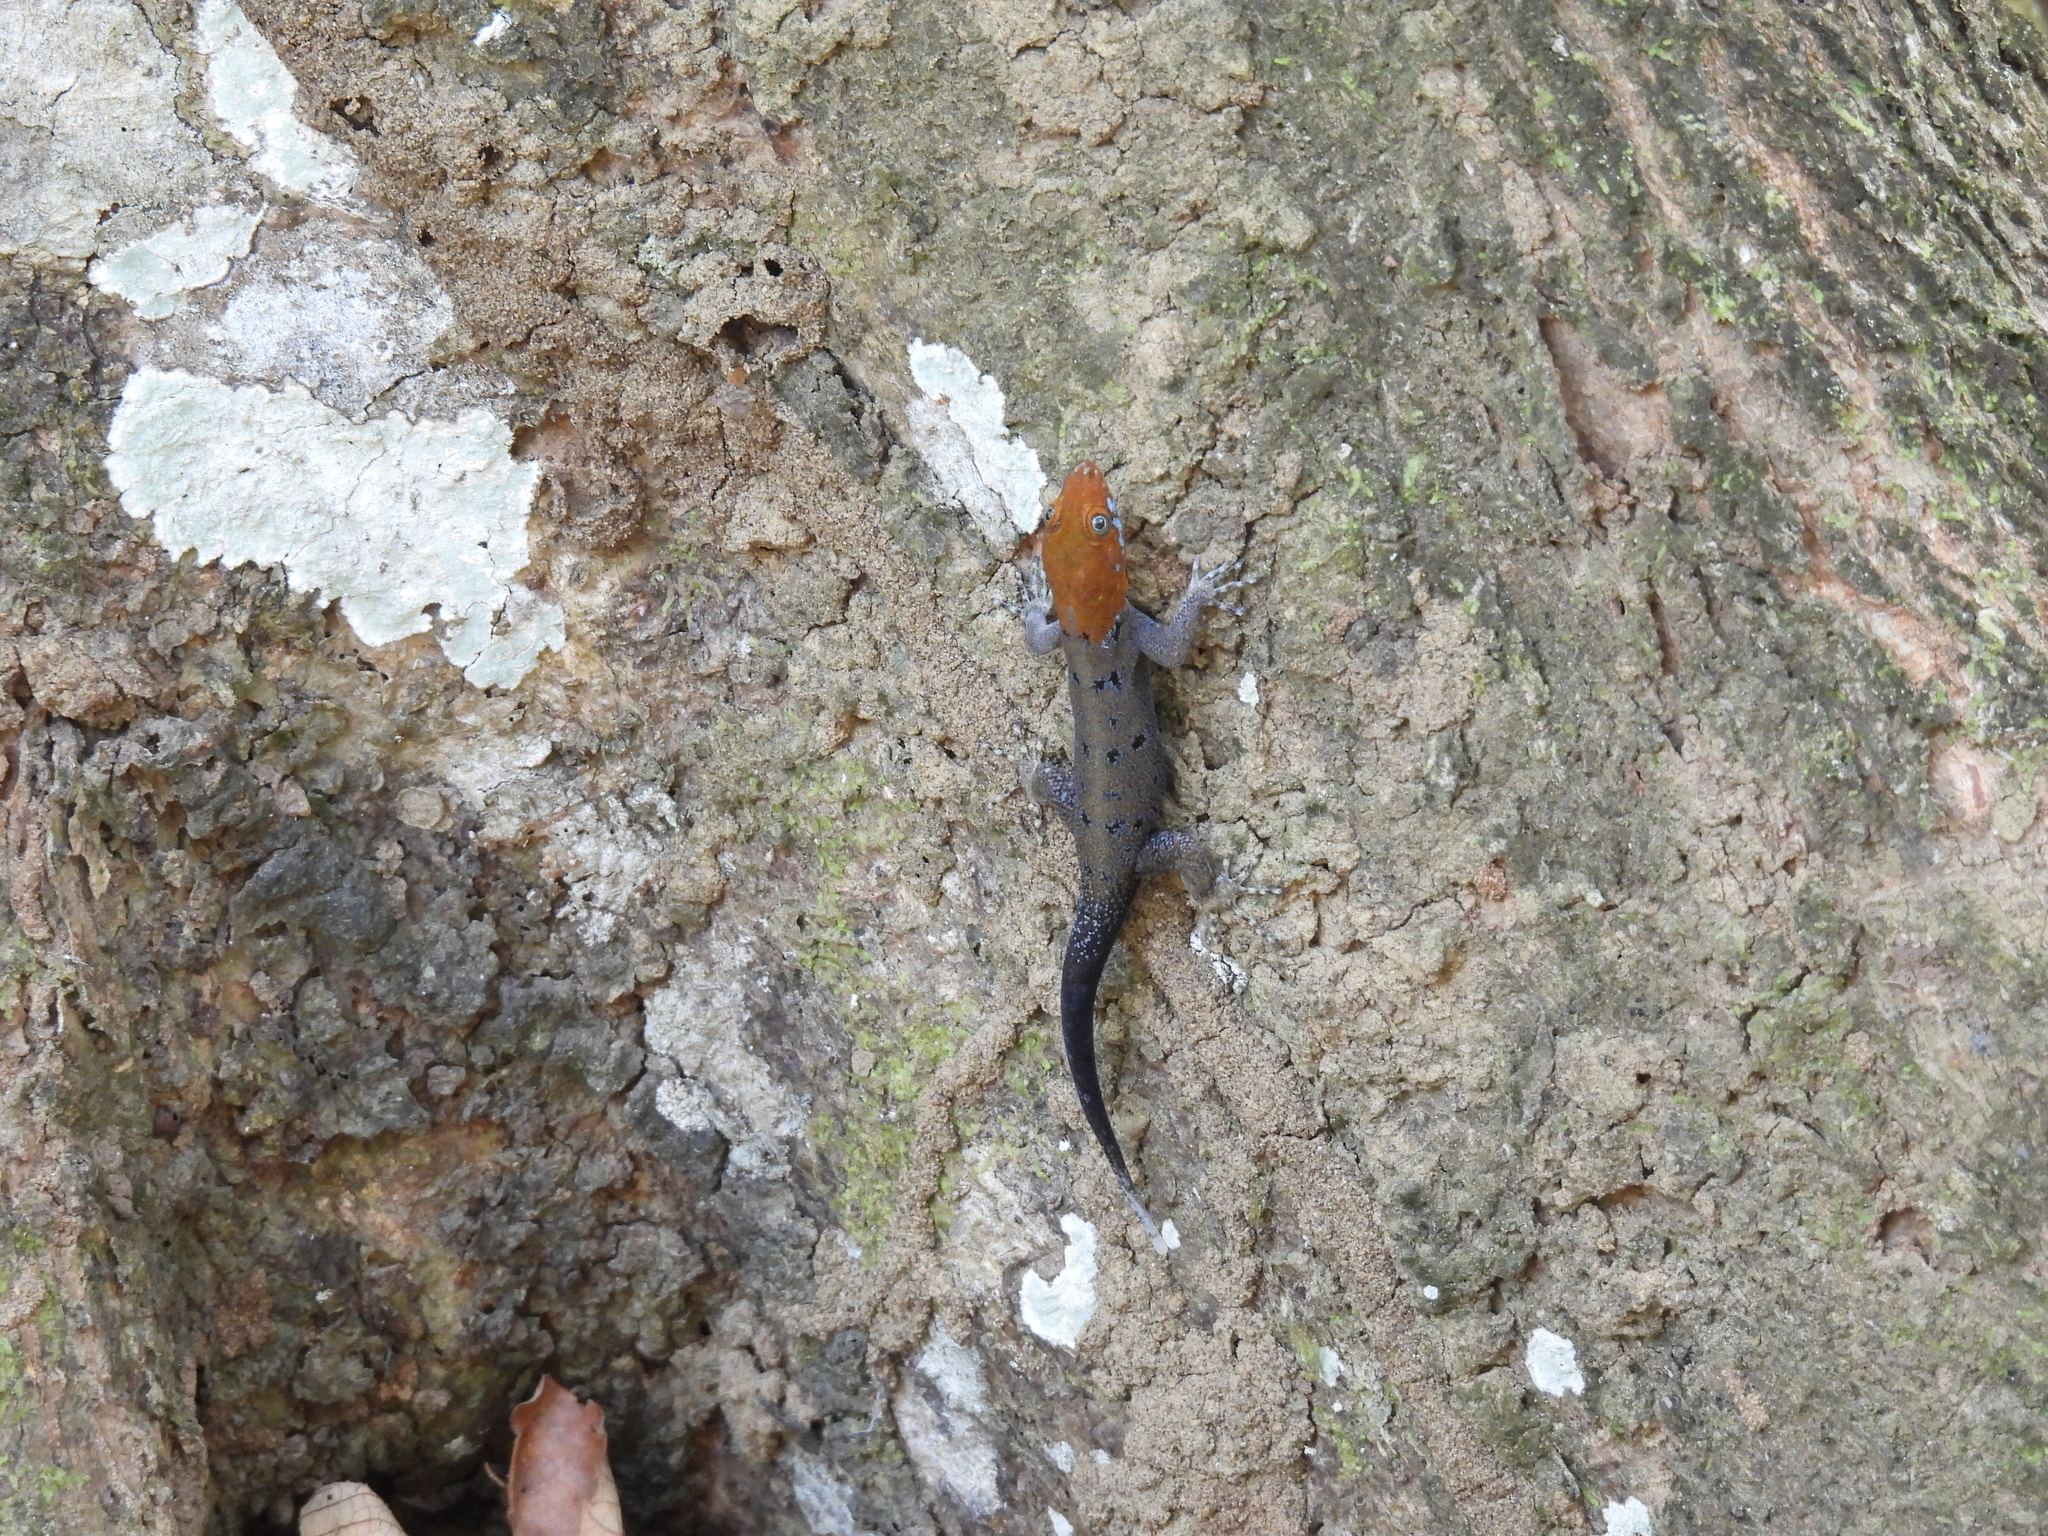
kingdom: Animalia
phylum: Chordata
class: Squamata
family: Sphaerodactylidae
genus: Gonatodes
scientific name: Gonatodes albogularis
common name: Yellow-headed gecko
